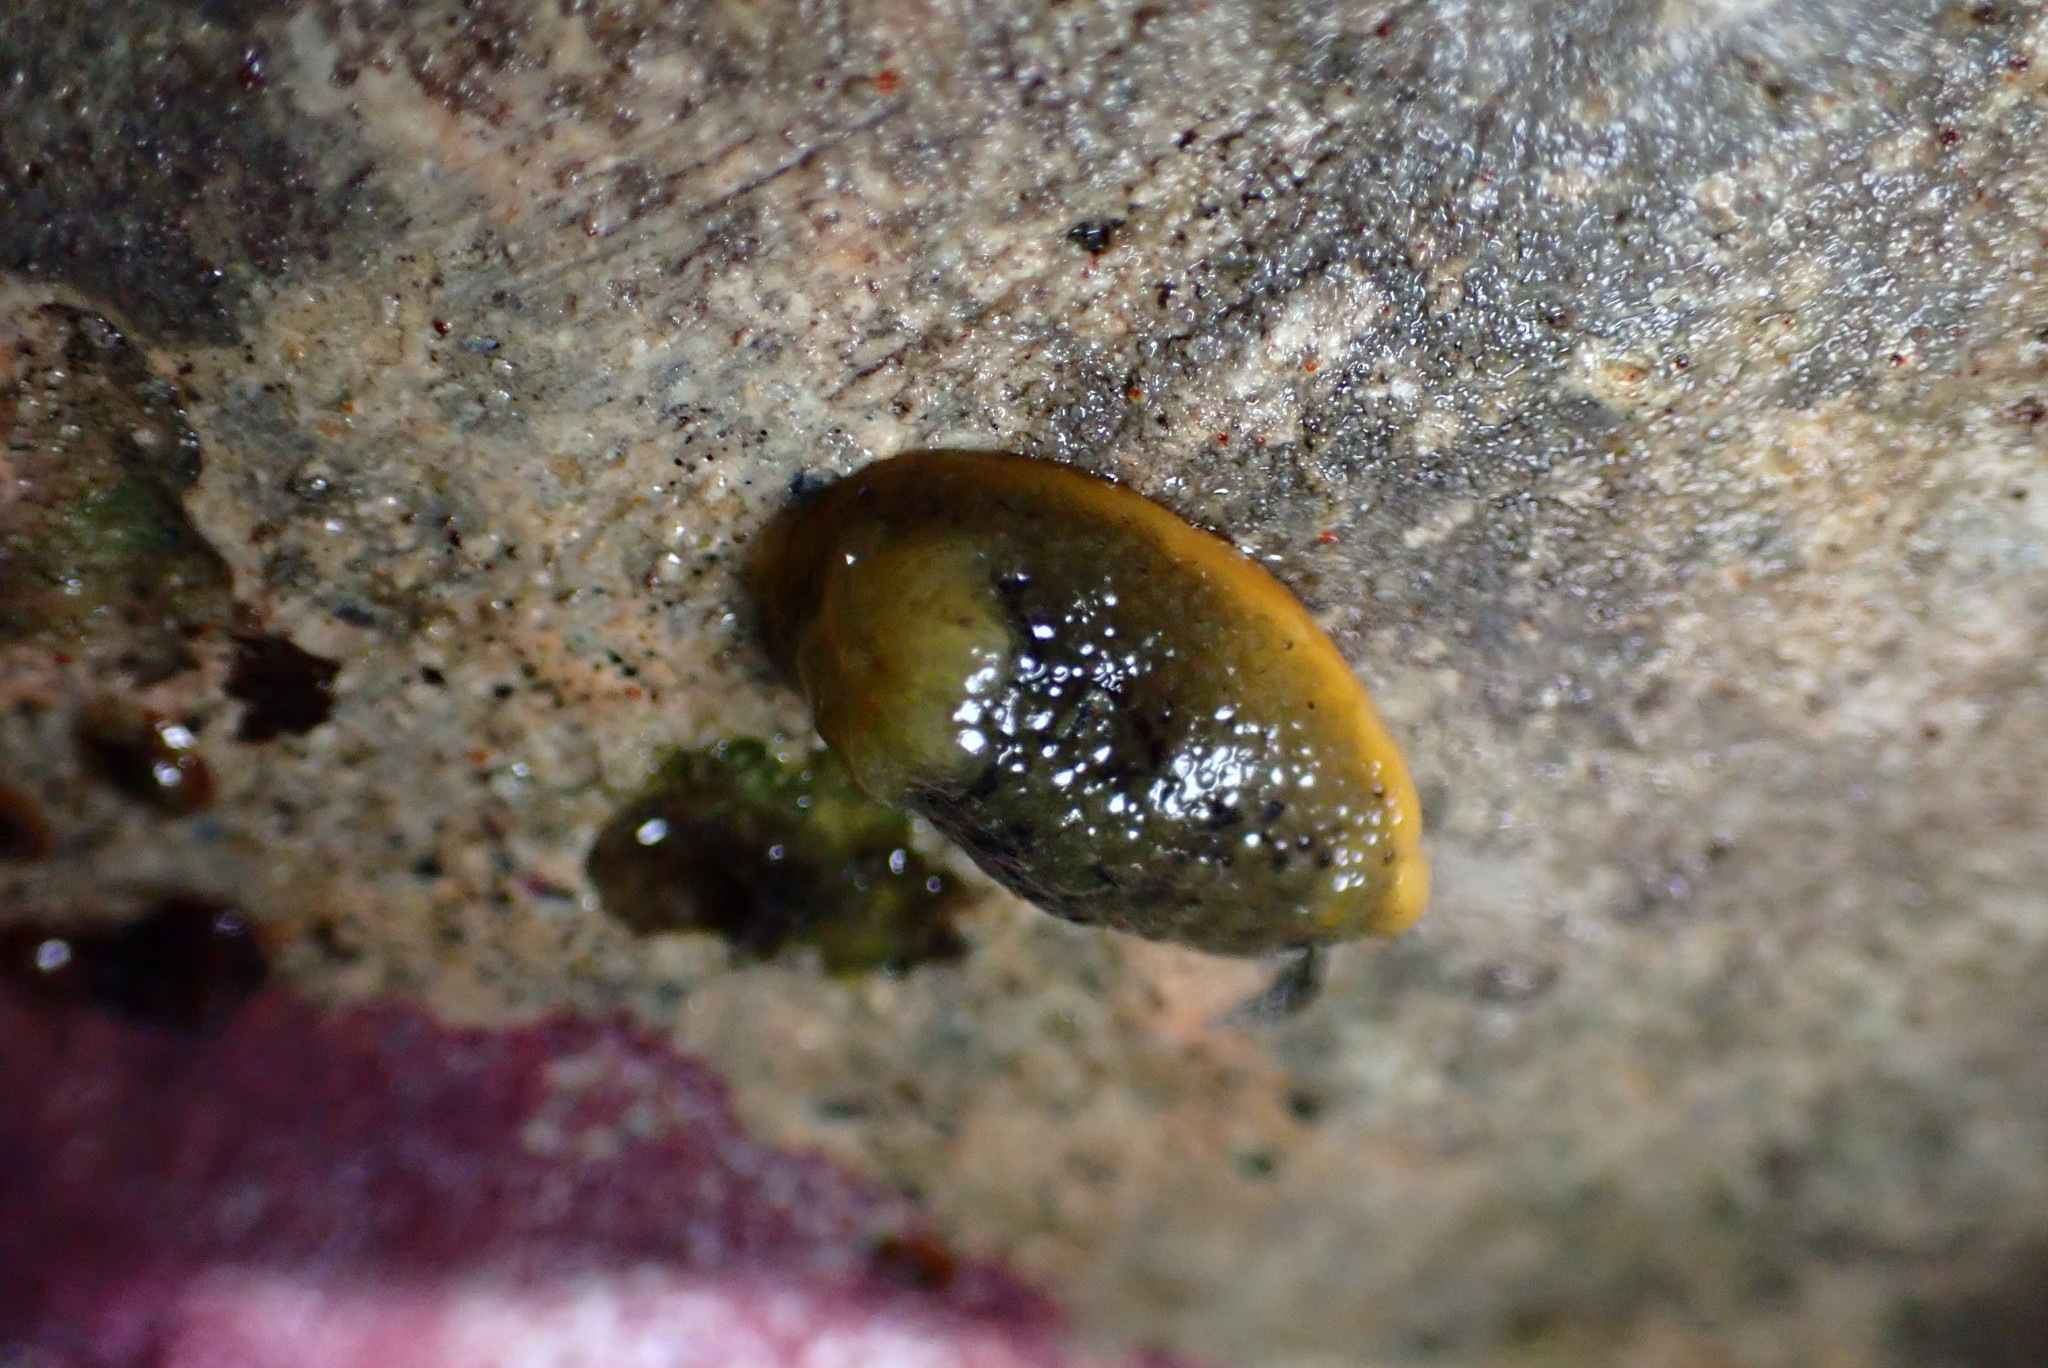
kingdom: Animalia
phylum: Mollusca
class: Gastropoda
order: Nudibranchia
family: Dorididae
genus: Doris
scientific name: Doris montereyensis
